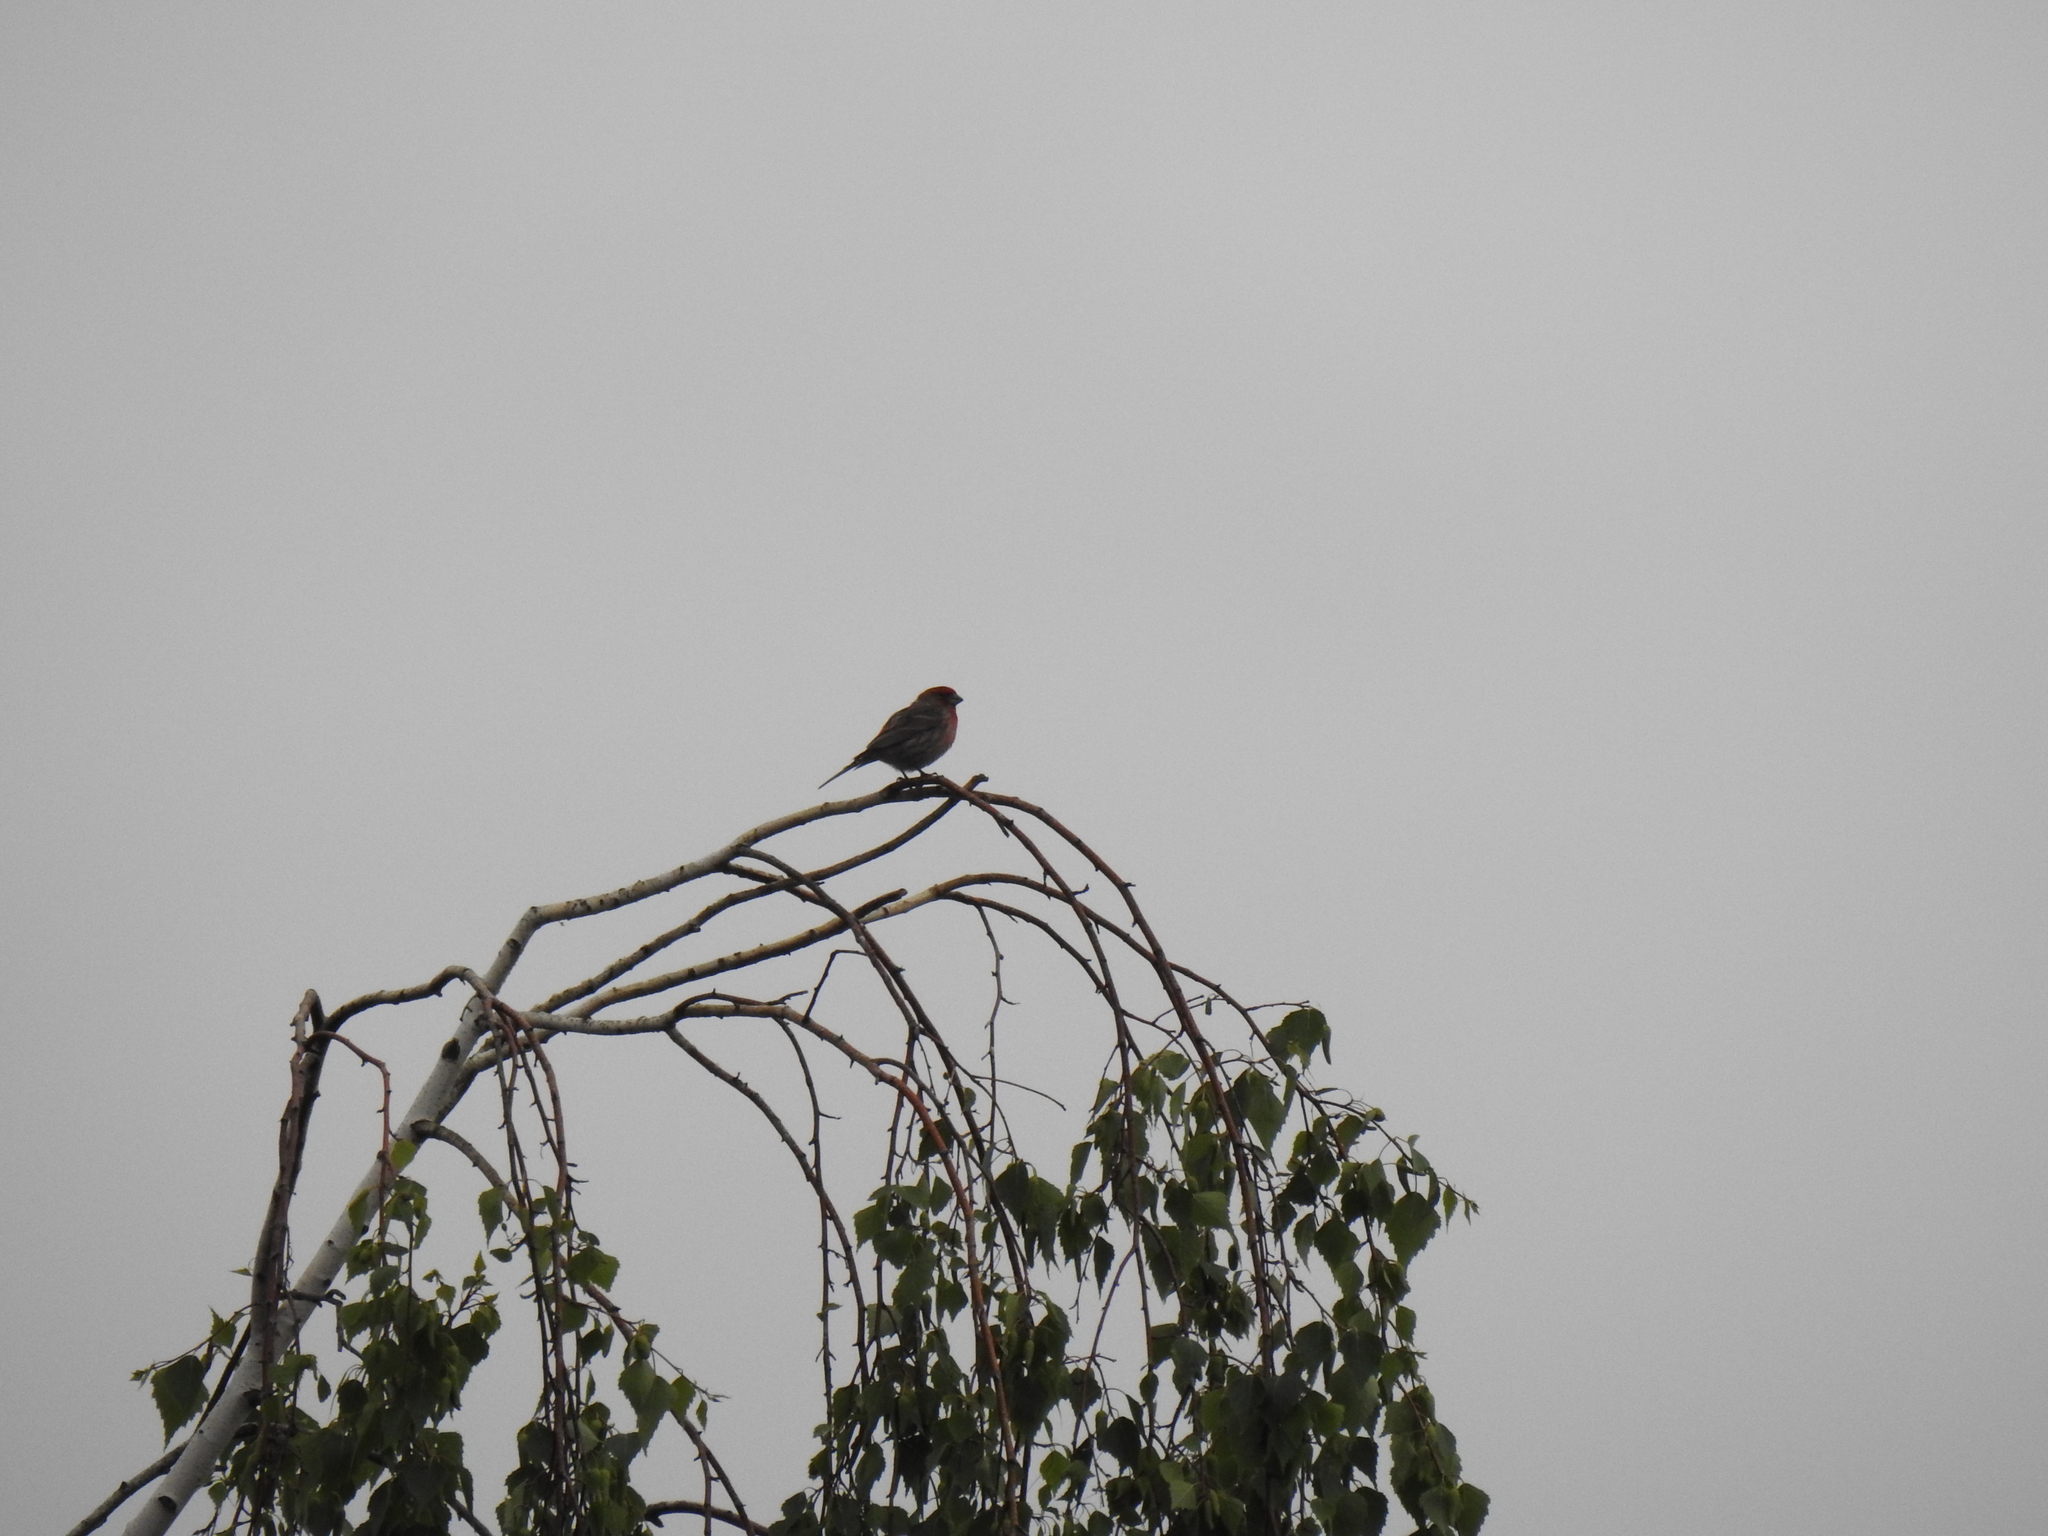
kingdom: Animalia
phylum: Chordata
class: Aves
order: Passeriformes
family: Fringillidae
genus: Haemorhous
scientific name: Haemorhous mexicanus
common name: House finch
